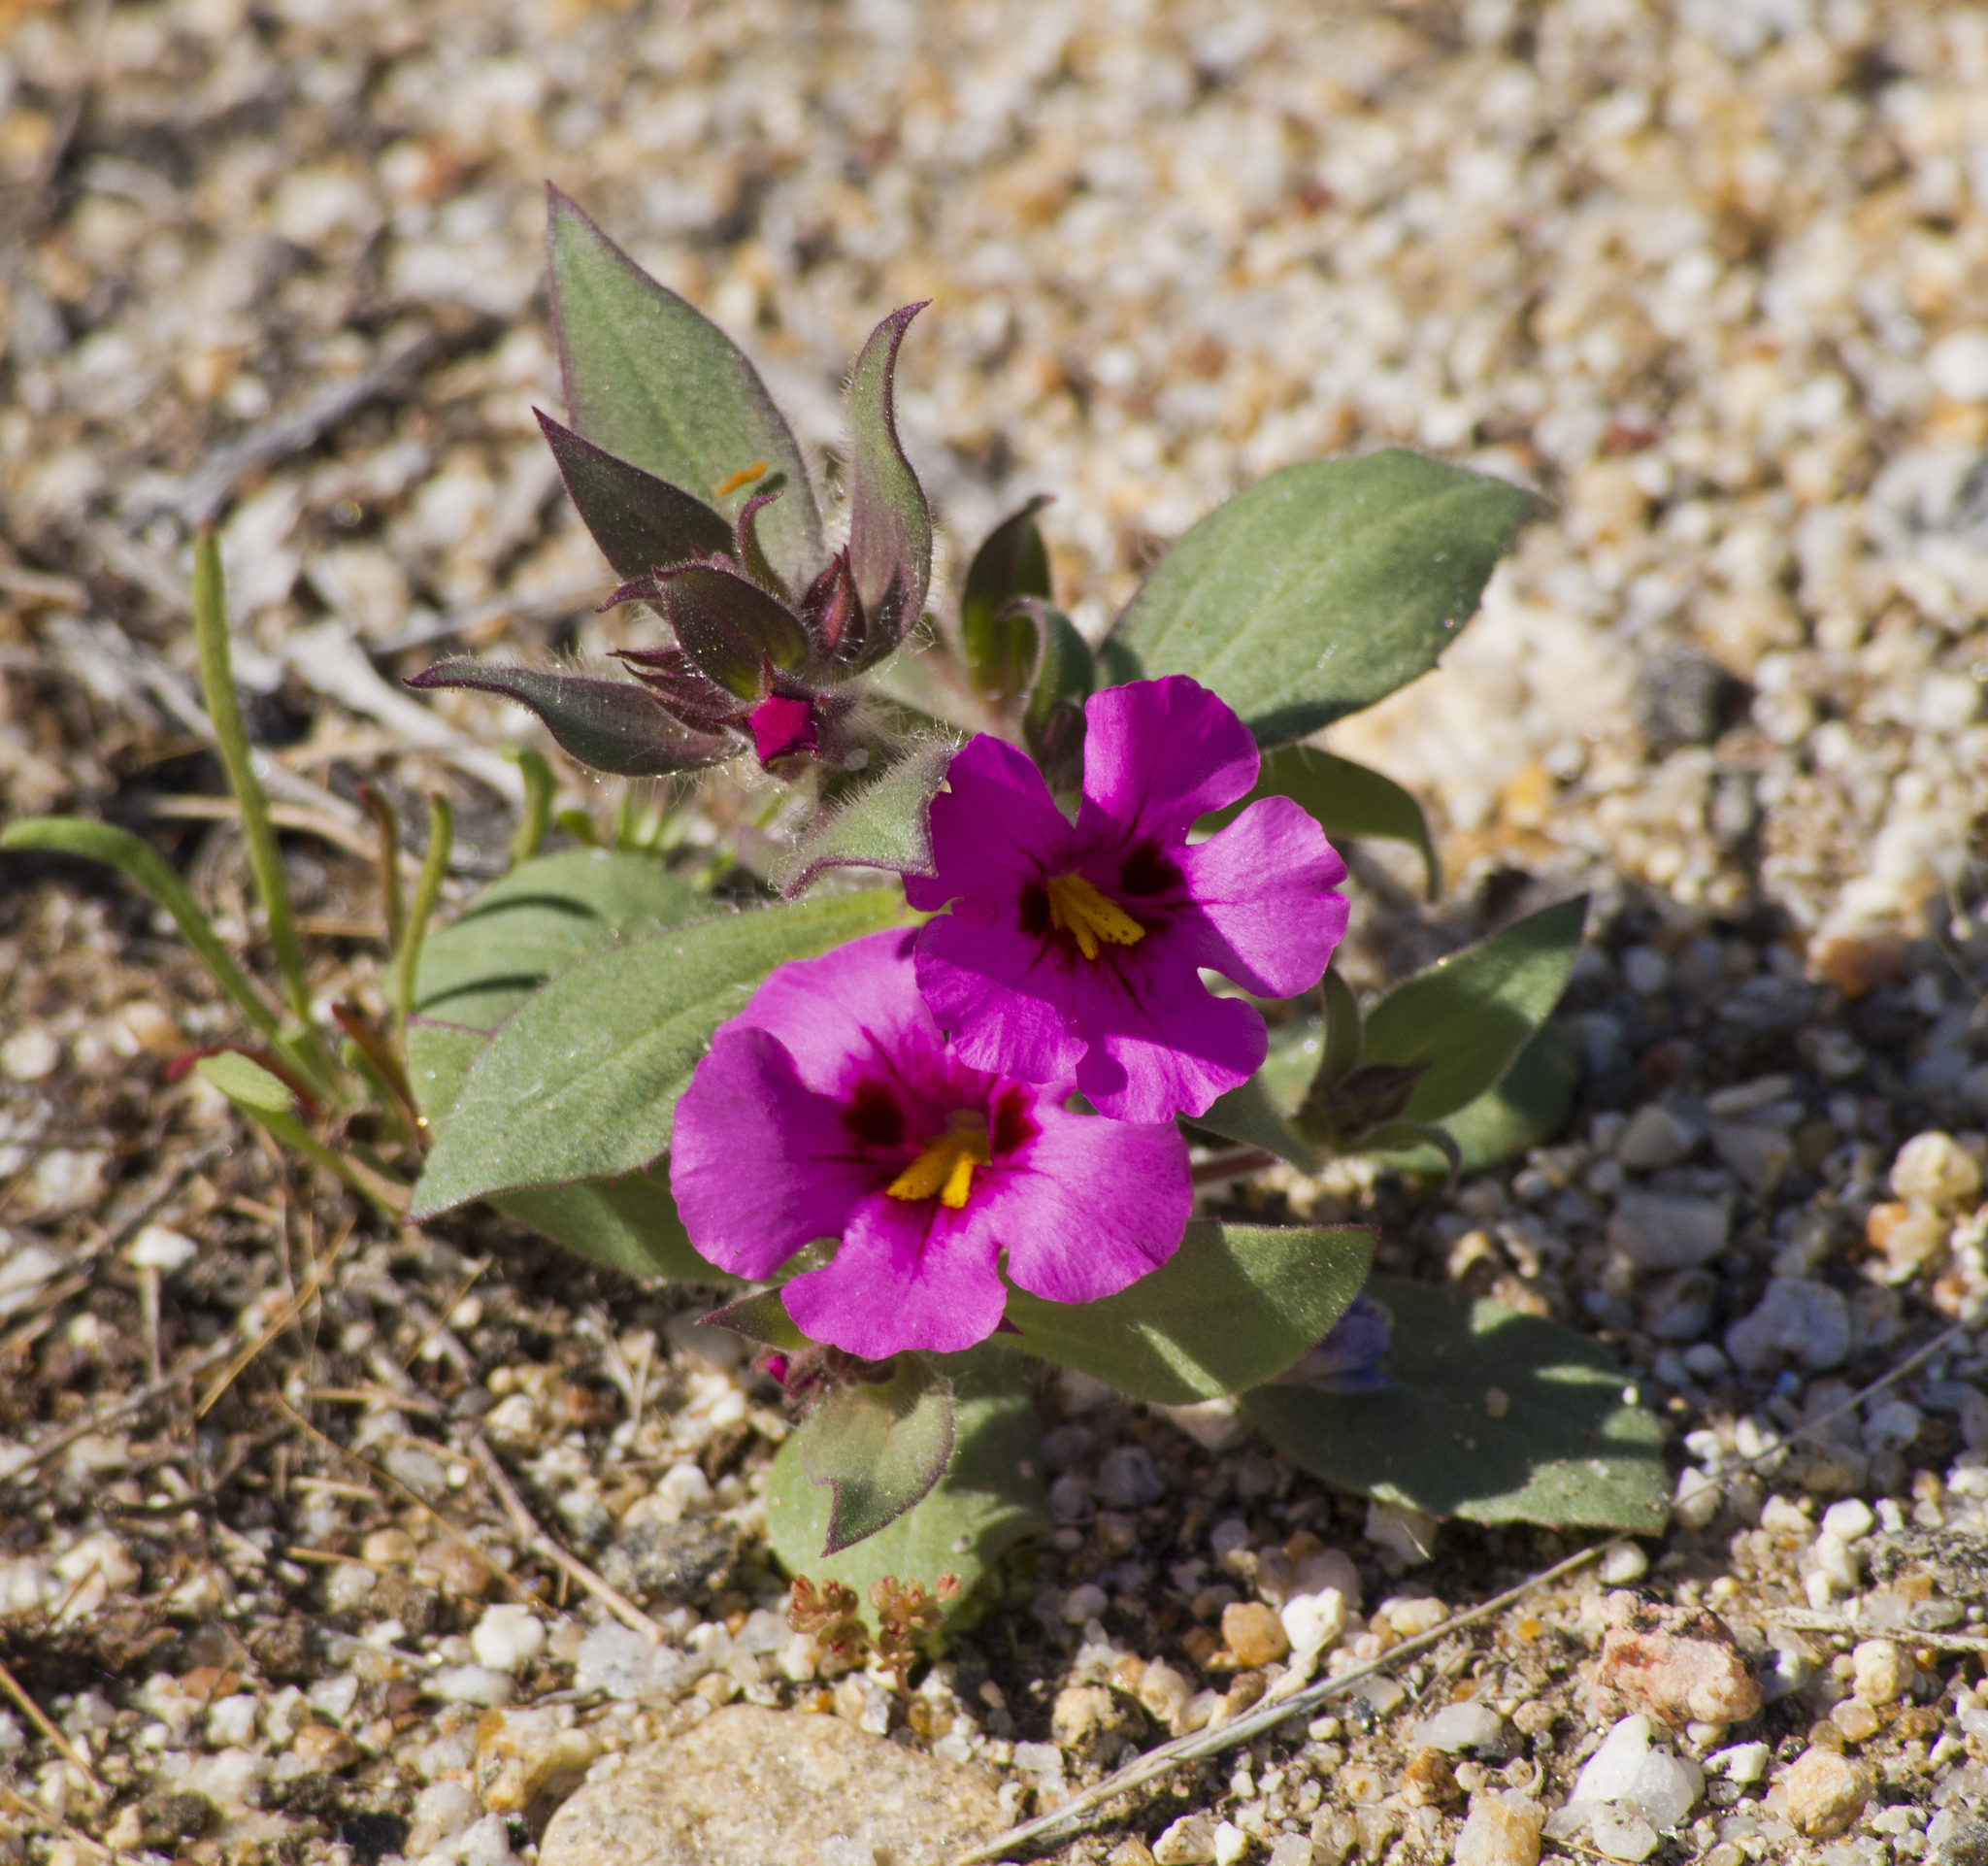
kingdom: Plantae
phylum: Tracheophyta
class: Magnoliopsida
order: Lamiales
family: Phrymaceae
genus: Diplacus
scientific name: Diplacus bigelovii
